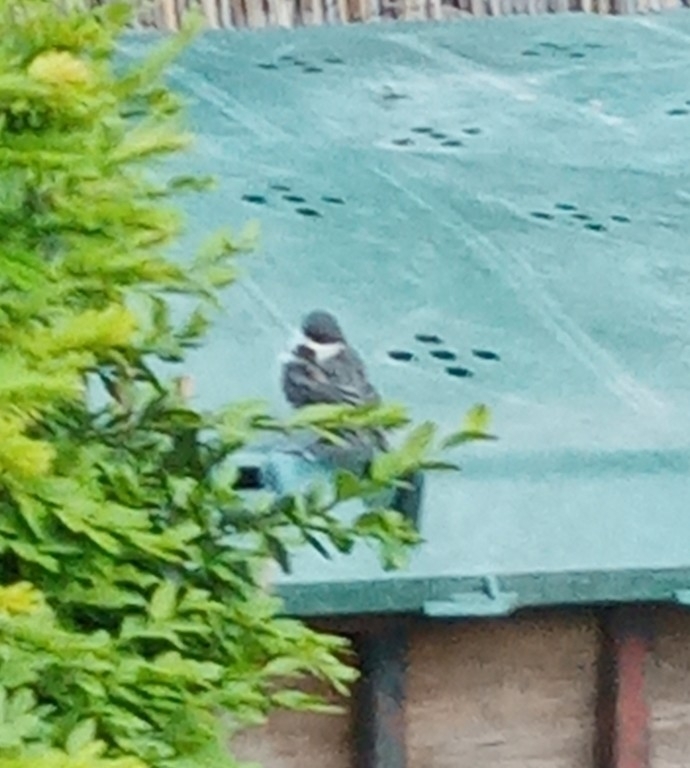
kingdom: Animalia
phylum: Chordata
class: Aves
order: Passeriformes
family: Paridae
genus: Parus
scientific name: Parus major
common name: Great tit
